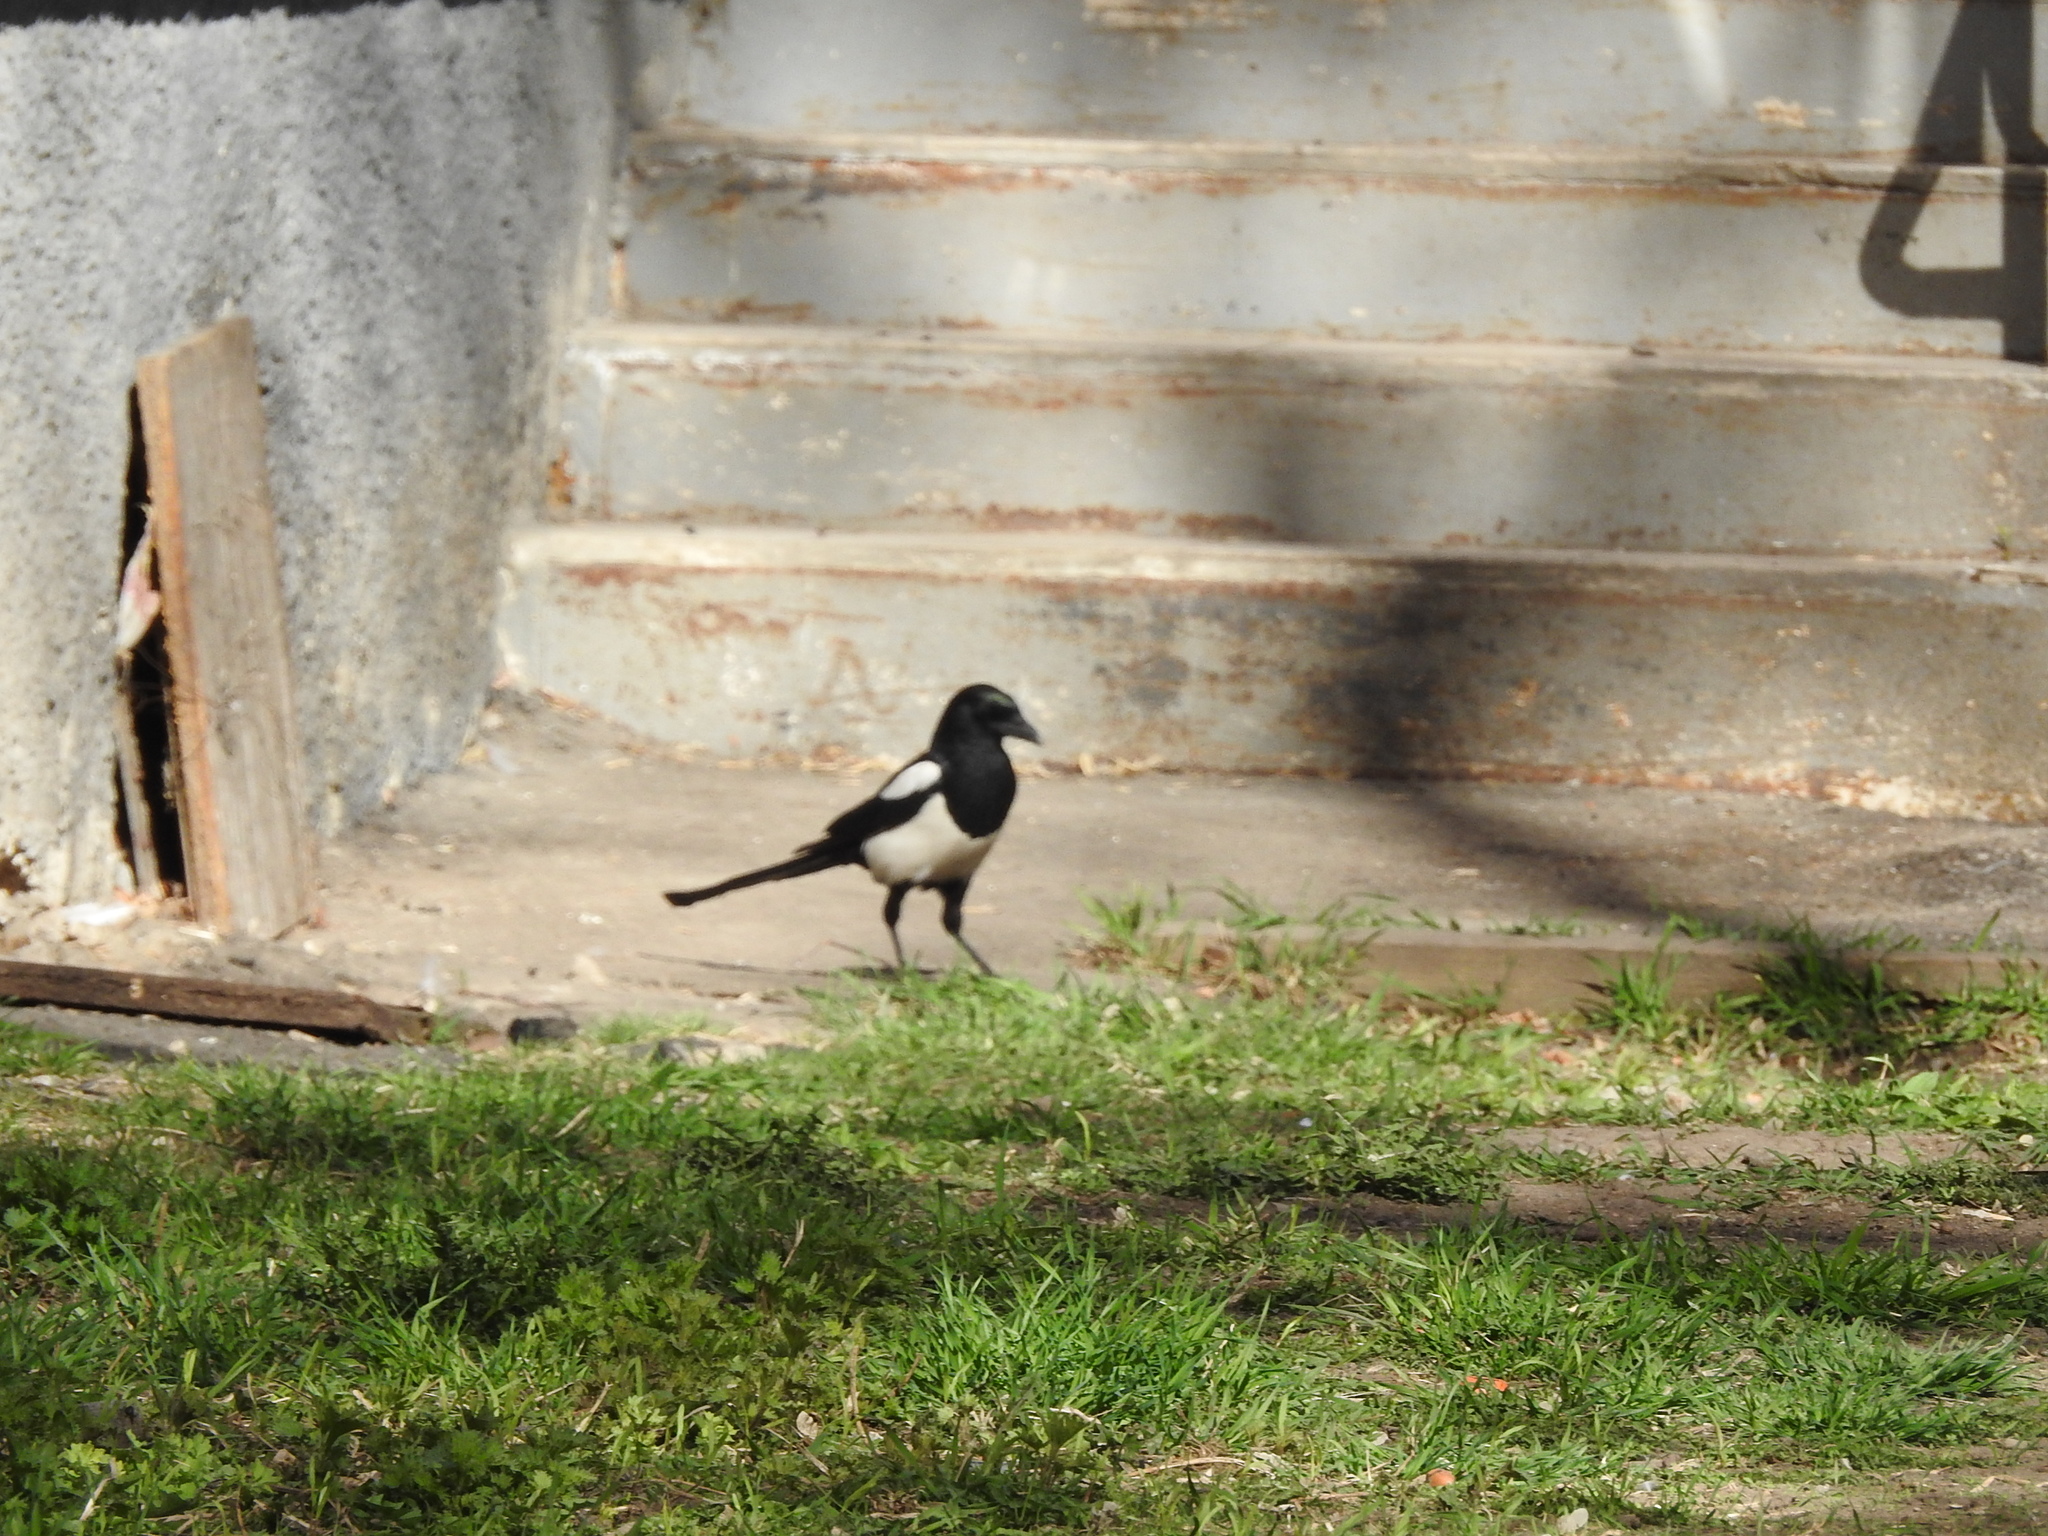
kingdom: Animalia
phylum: Chordata
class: Aves
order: Passeriformes
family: Corvidae
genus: Pica
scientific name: Pica pica
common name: Eurasian magpie
